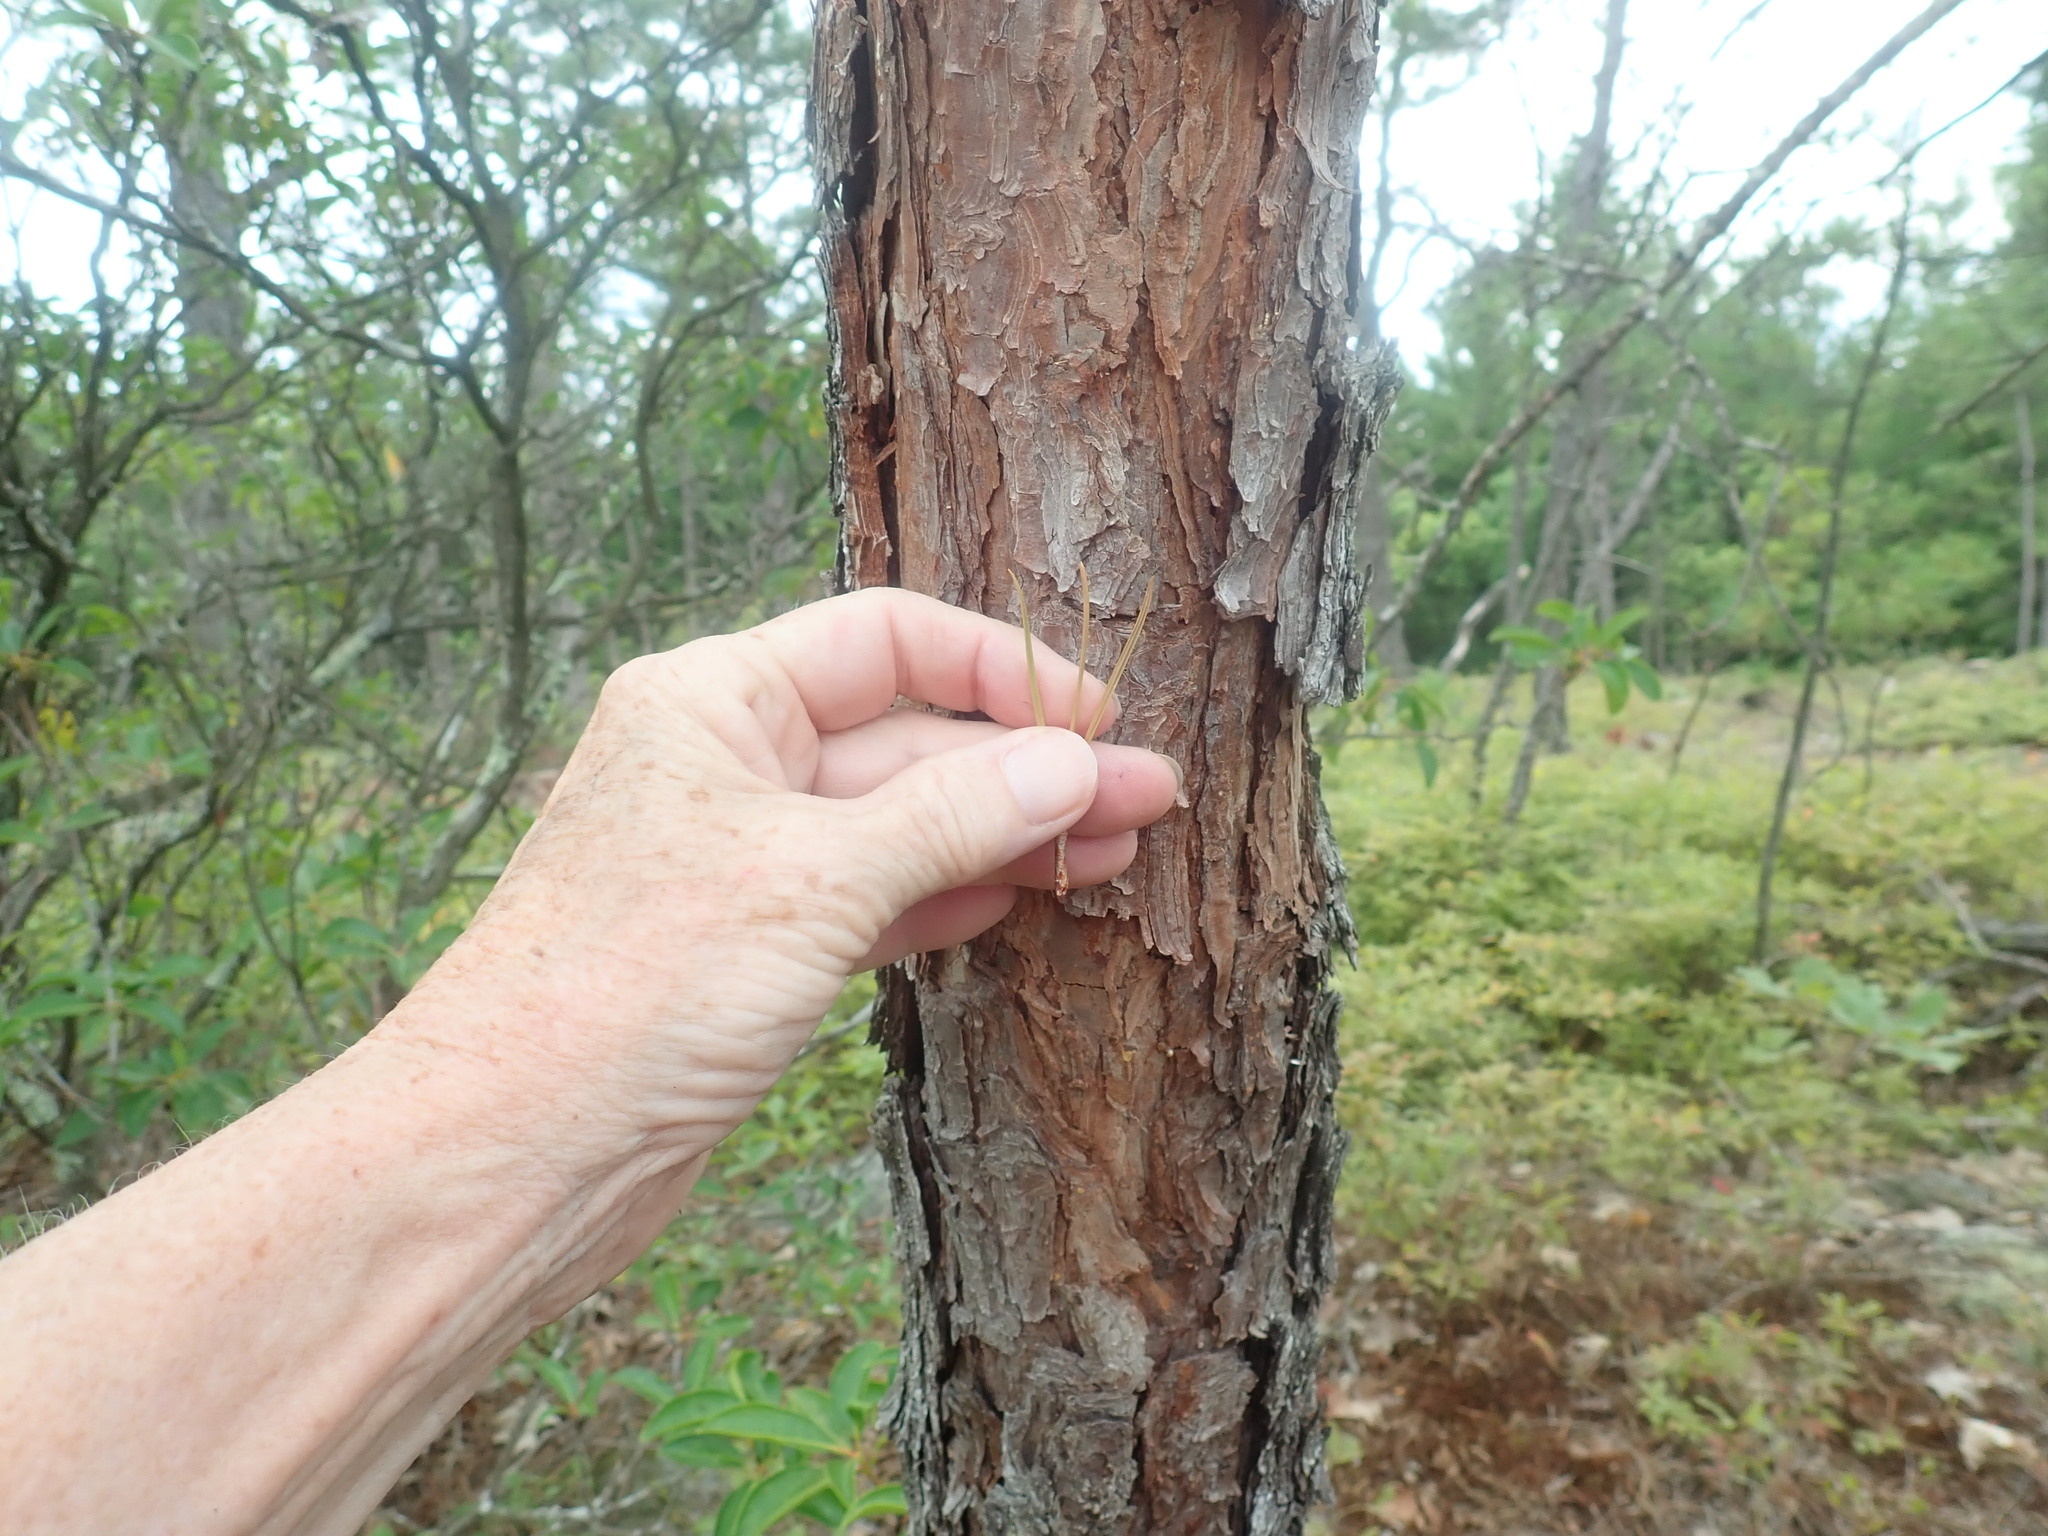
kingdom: Plantae
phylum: Tracheophyta
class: Pinopsida
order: Pinales
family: Pinaceae
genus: Pinus
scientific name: Pinus rigida
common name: Pitch pine
